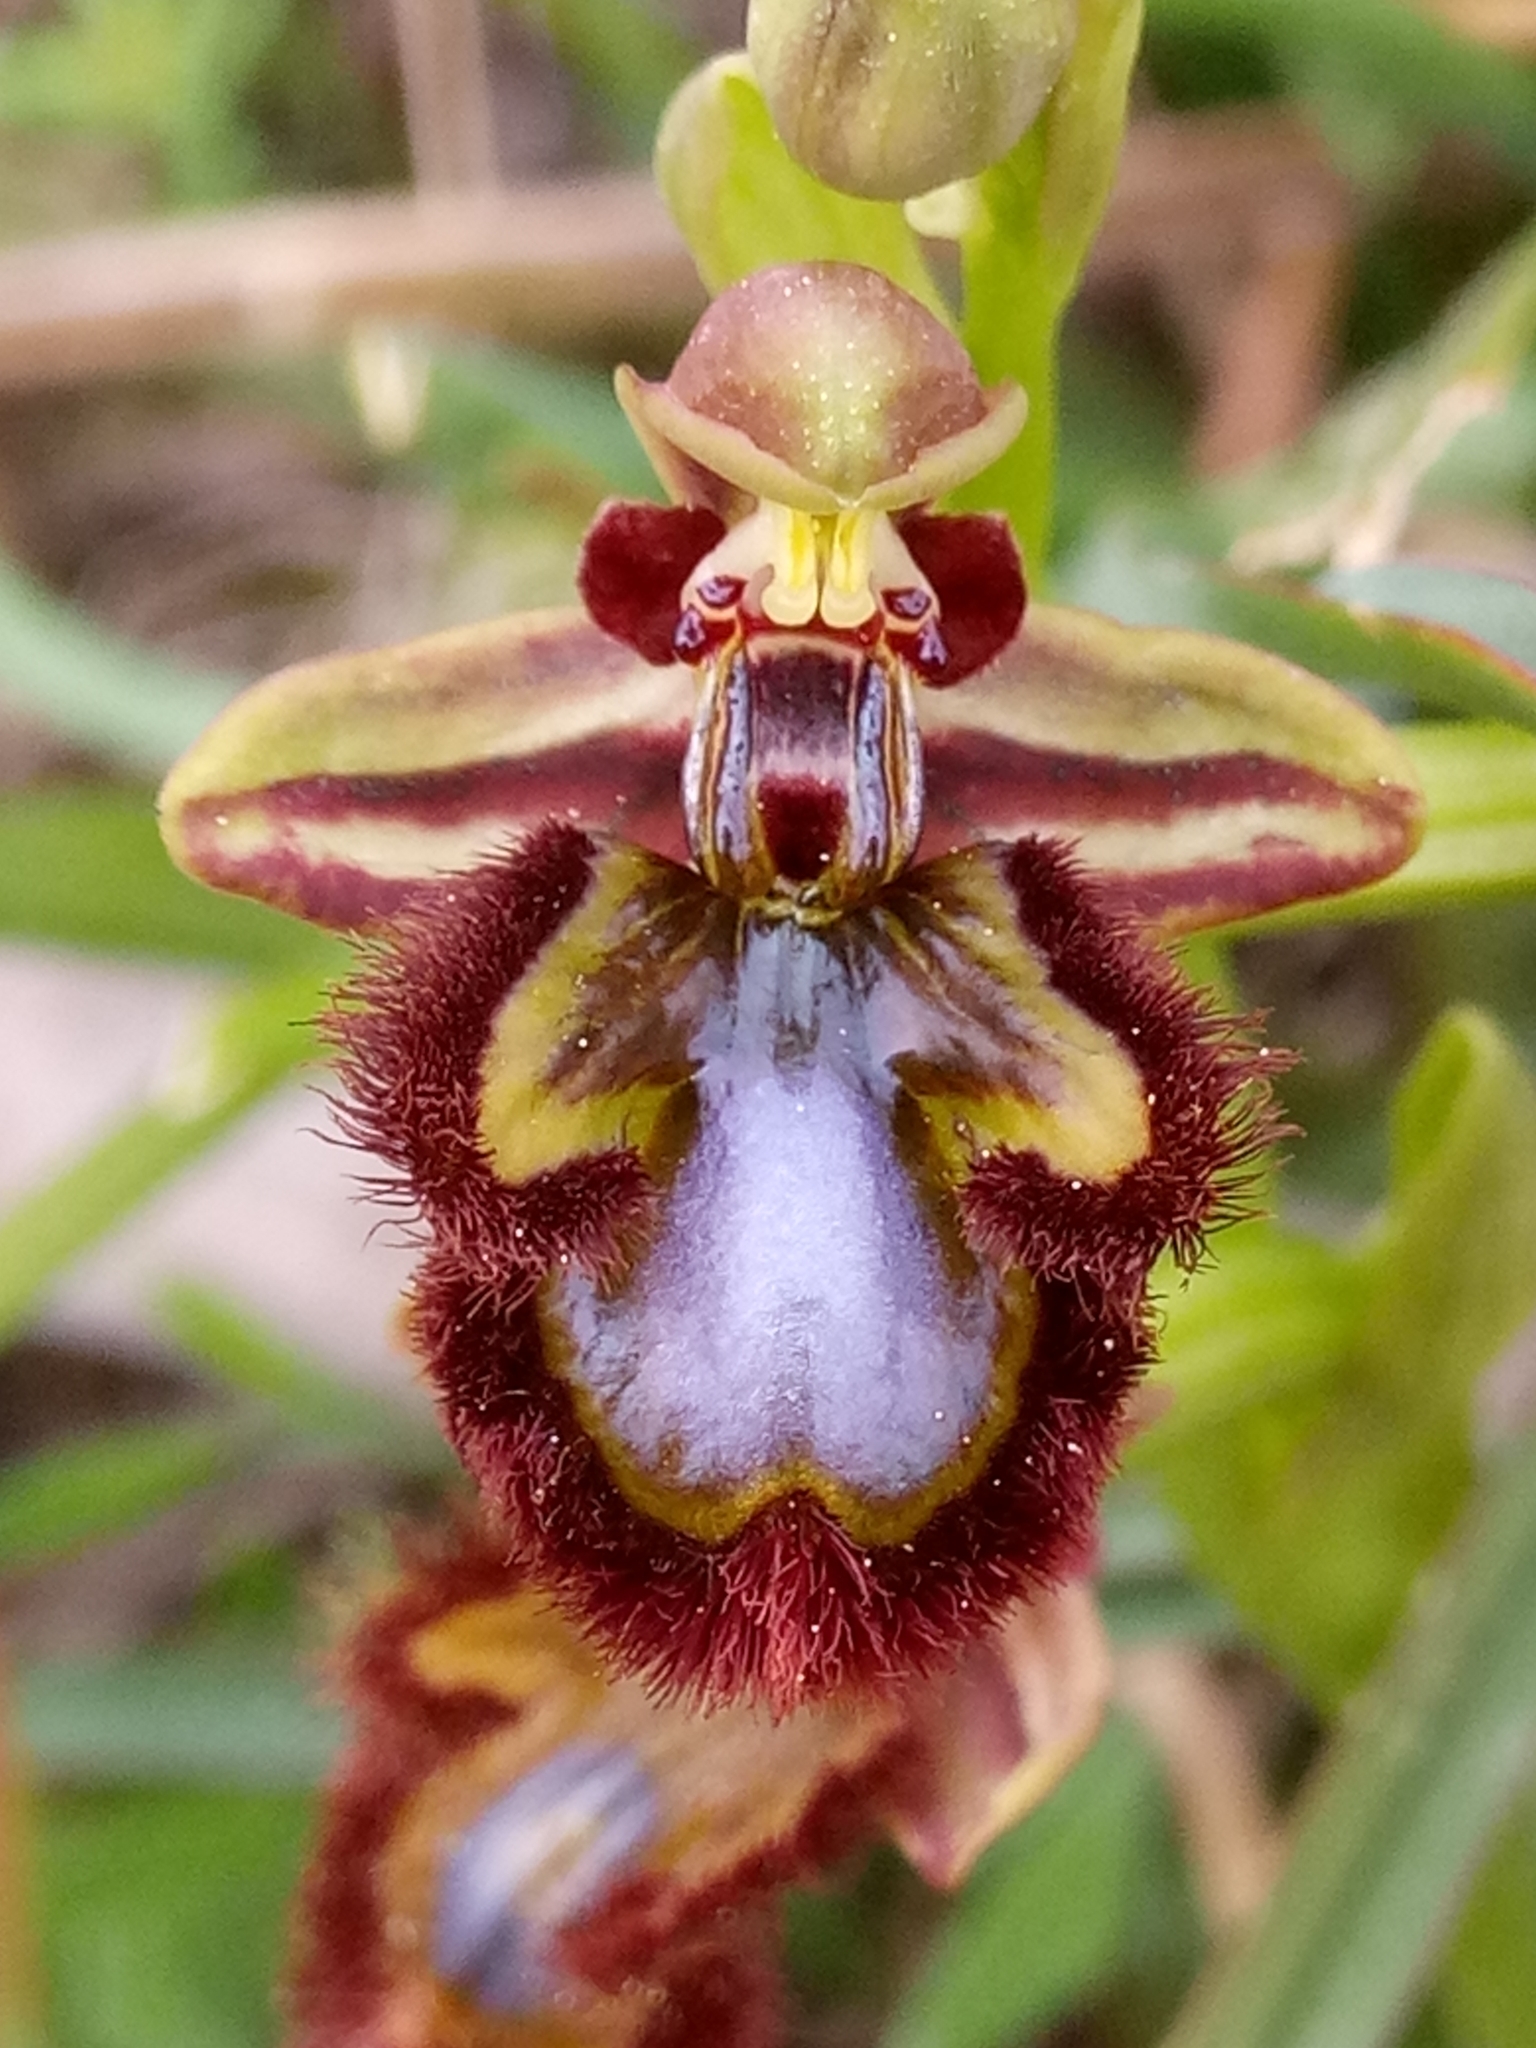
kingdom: Plantae
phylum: Tracheophyta
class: Liliopsida
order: Asparagales
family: Orchidaceae
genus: Ophrys
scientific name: Ophrys speculum
